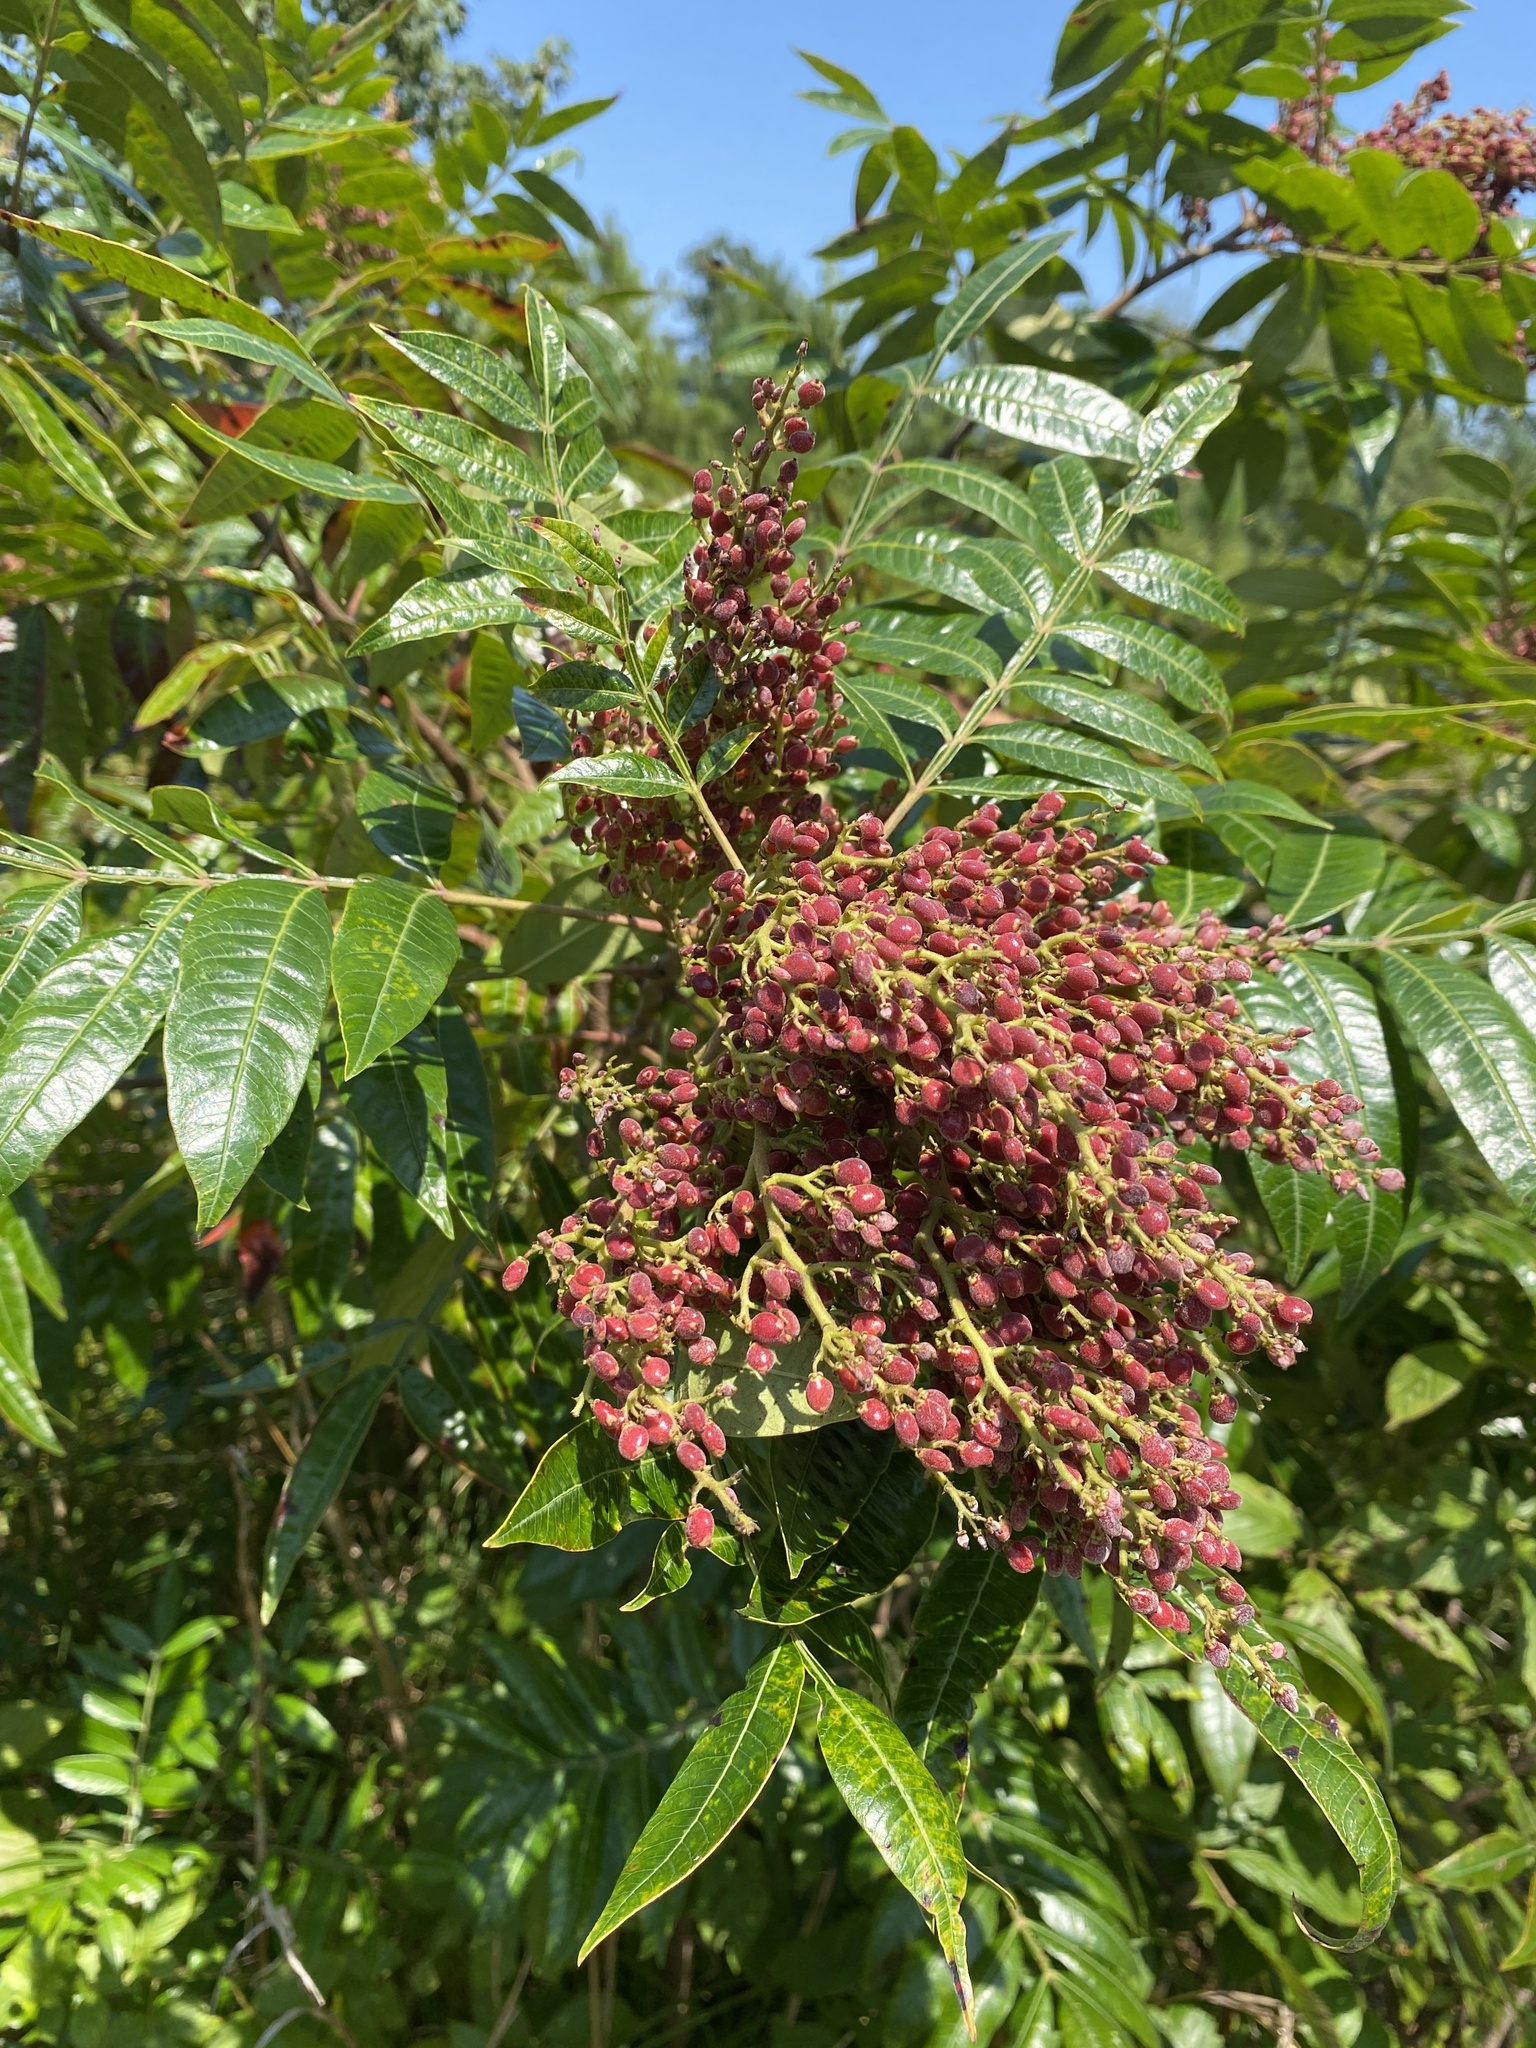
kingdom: Plantae
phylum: Tracheophyta
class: Magnoliopsida
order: Sapindales
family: Anacardiaceae
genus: Rhus
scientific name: Rhus copallina
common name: Shining sumac
